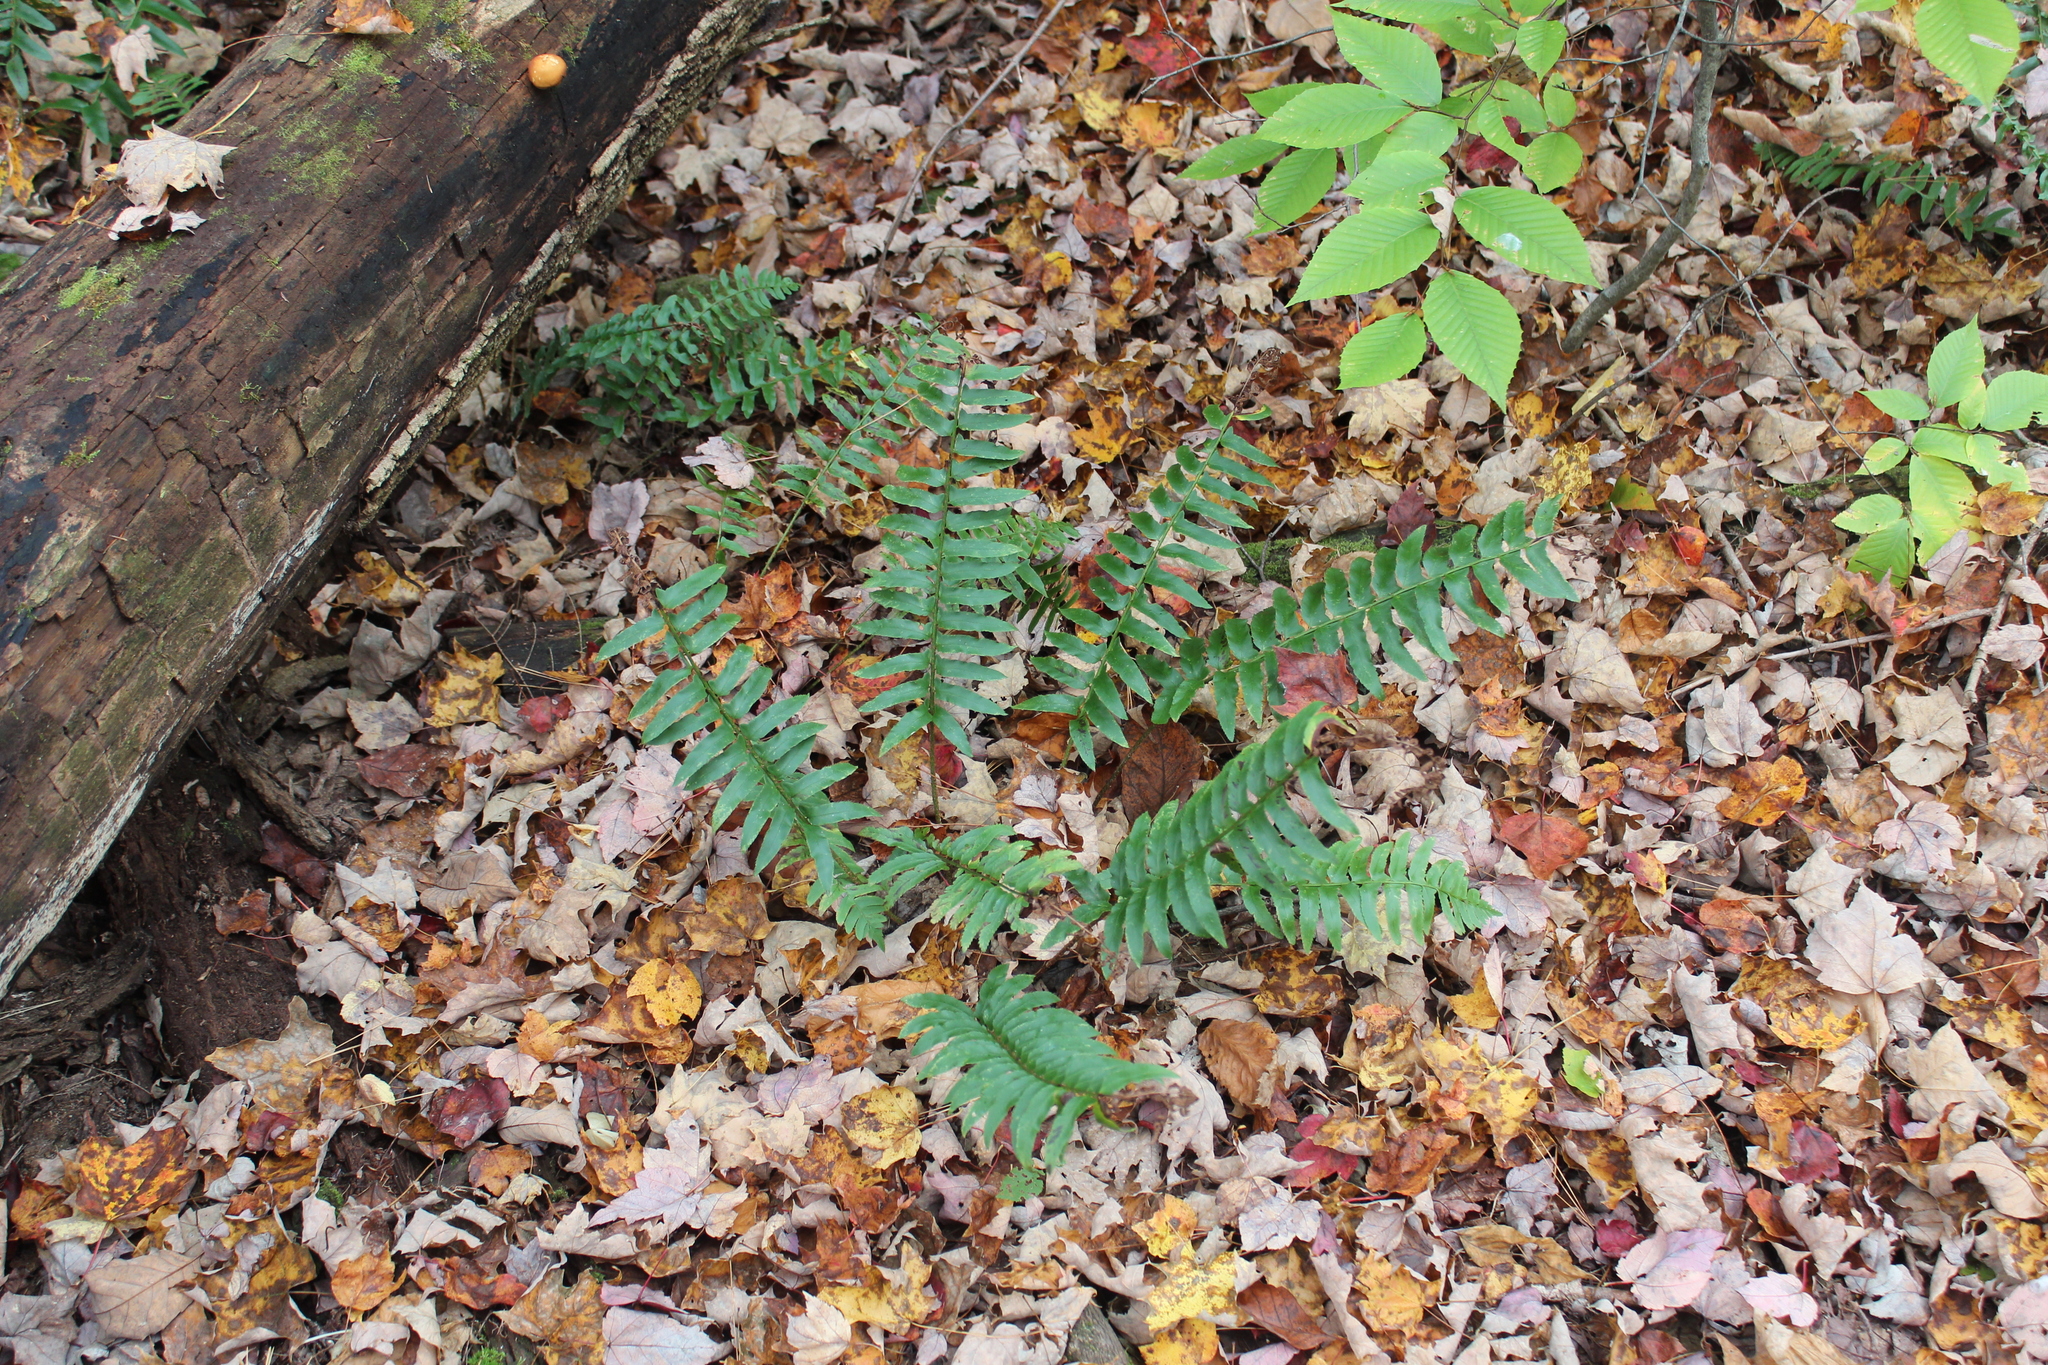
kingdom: Plantae
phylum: Tracheophyta
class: Polypodiopsida
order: Polypodiales
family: Dryopteridaceae
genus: Polystichum
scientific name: Polystichum acrostichoides
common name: Christmas fern
